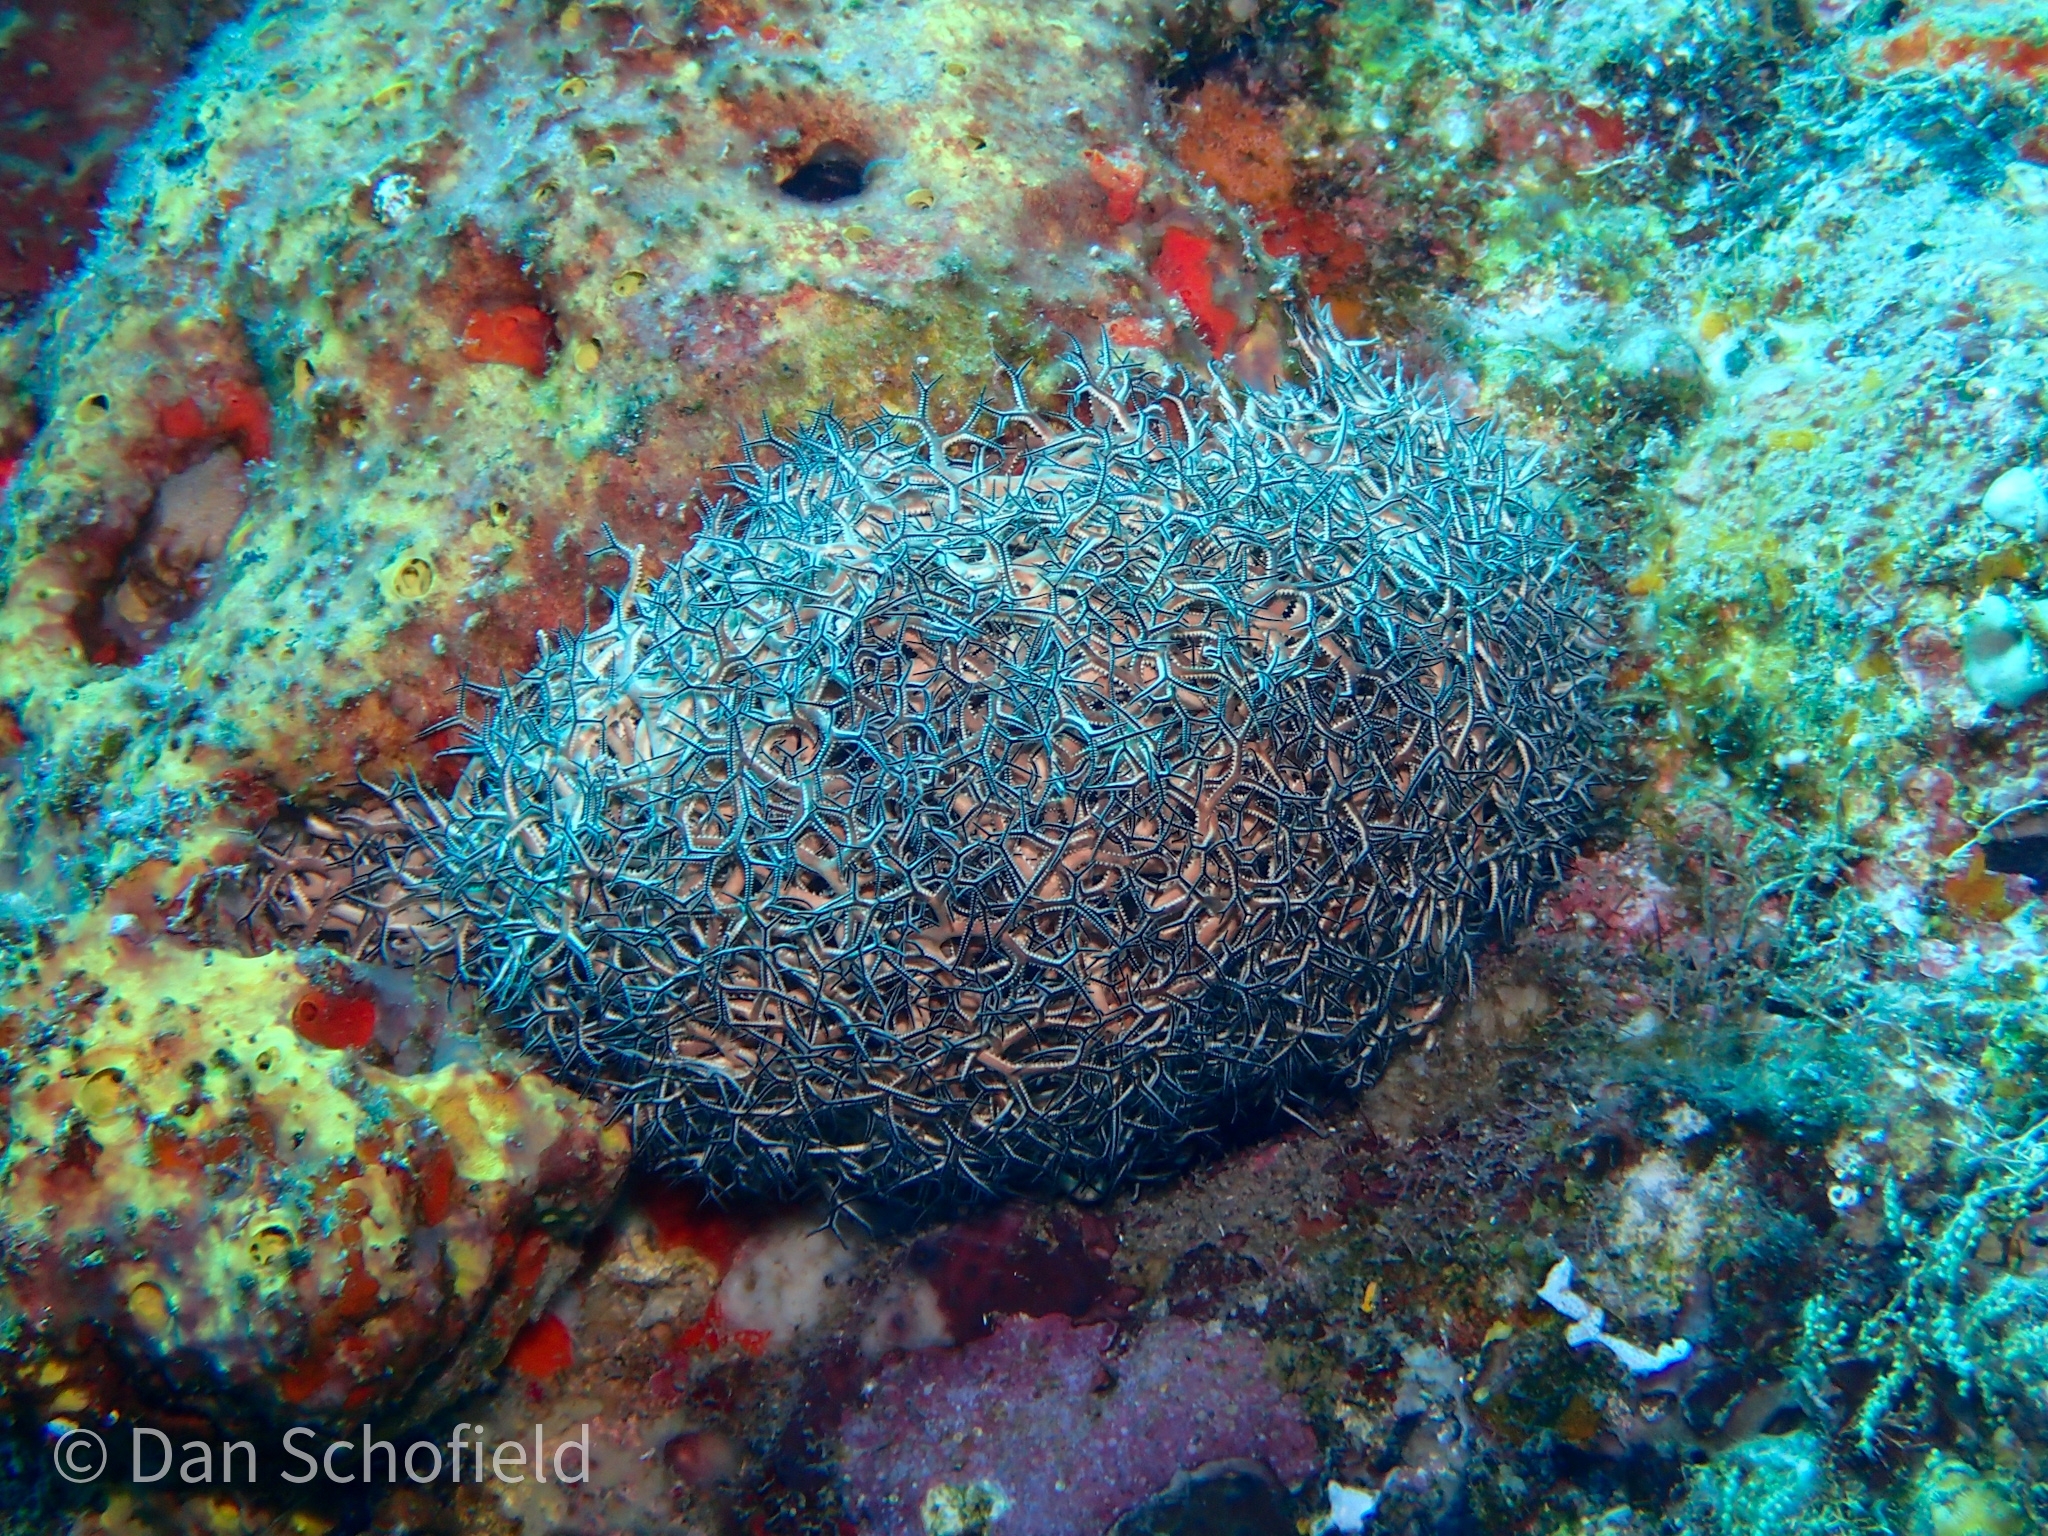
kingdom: Animalia
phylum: Echinodermata
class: Ophiuroidea
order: Euryalida
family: Gorgonocephalidae
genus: Astrophyton
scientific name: Astrophyton muricatum
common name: Basket starfish
